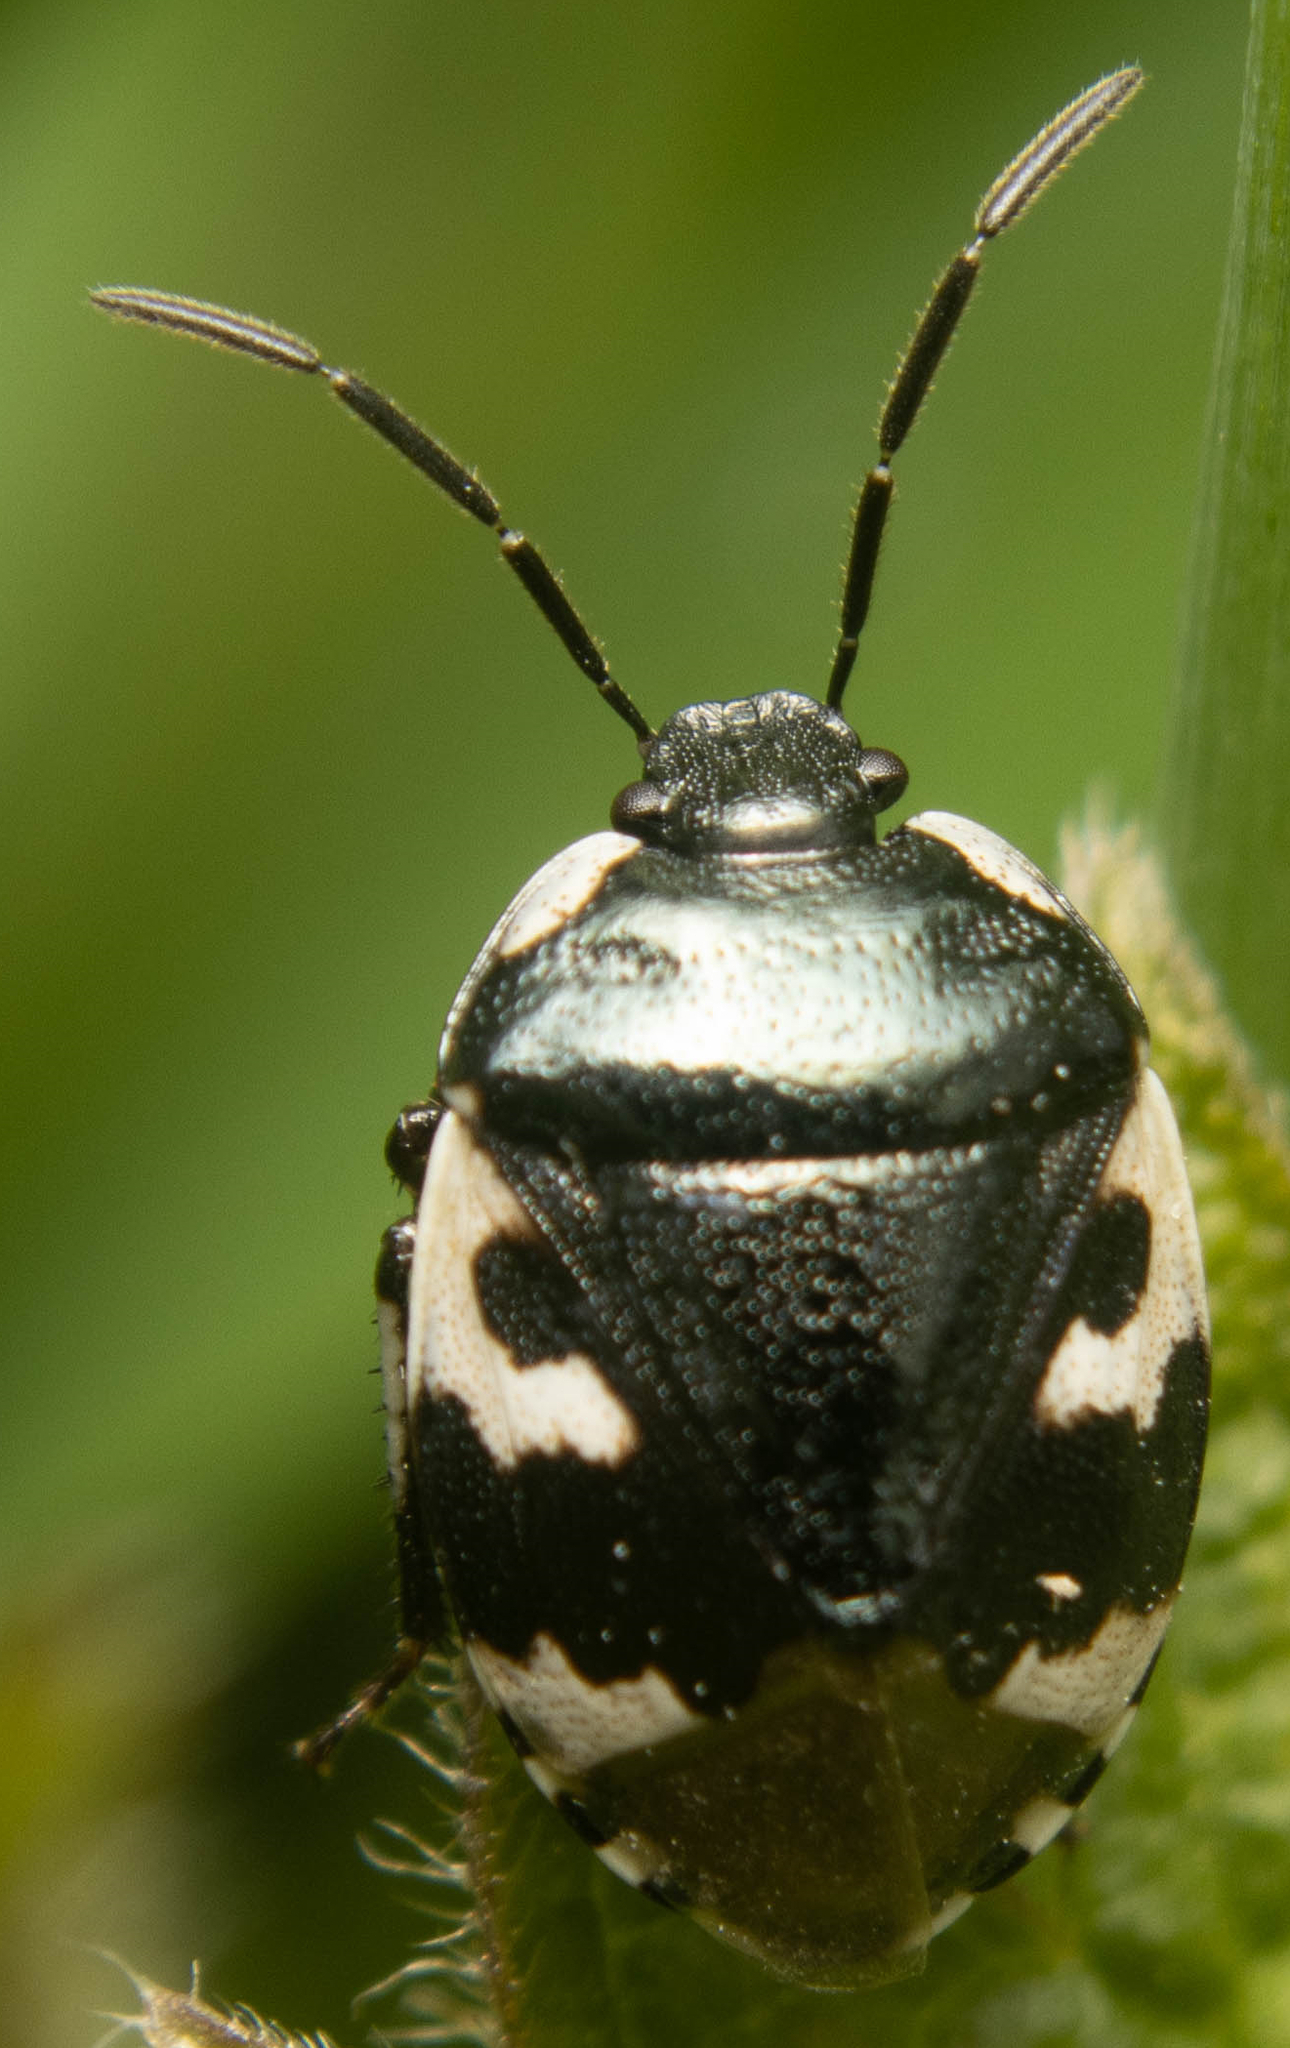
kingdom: Animalia
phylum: Arthropoda
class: Insecta
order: Hemiptera
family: Cydnidae
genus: Tritomegas
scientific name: Tritomegas bicolor
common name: Pied shieldbug
